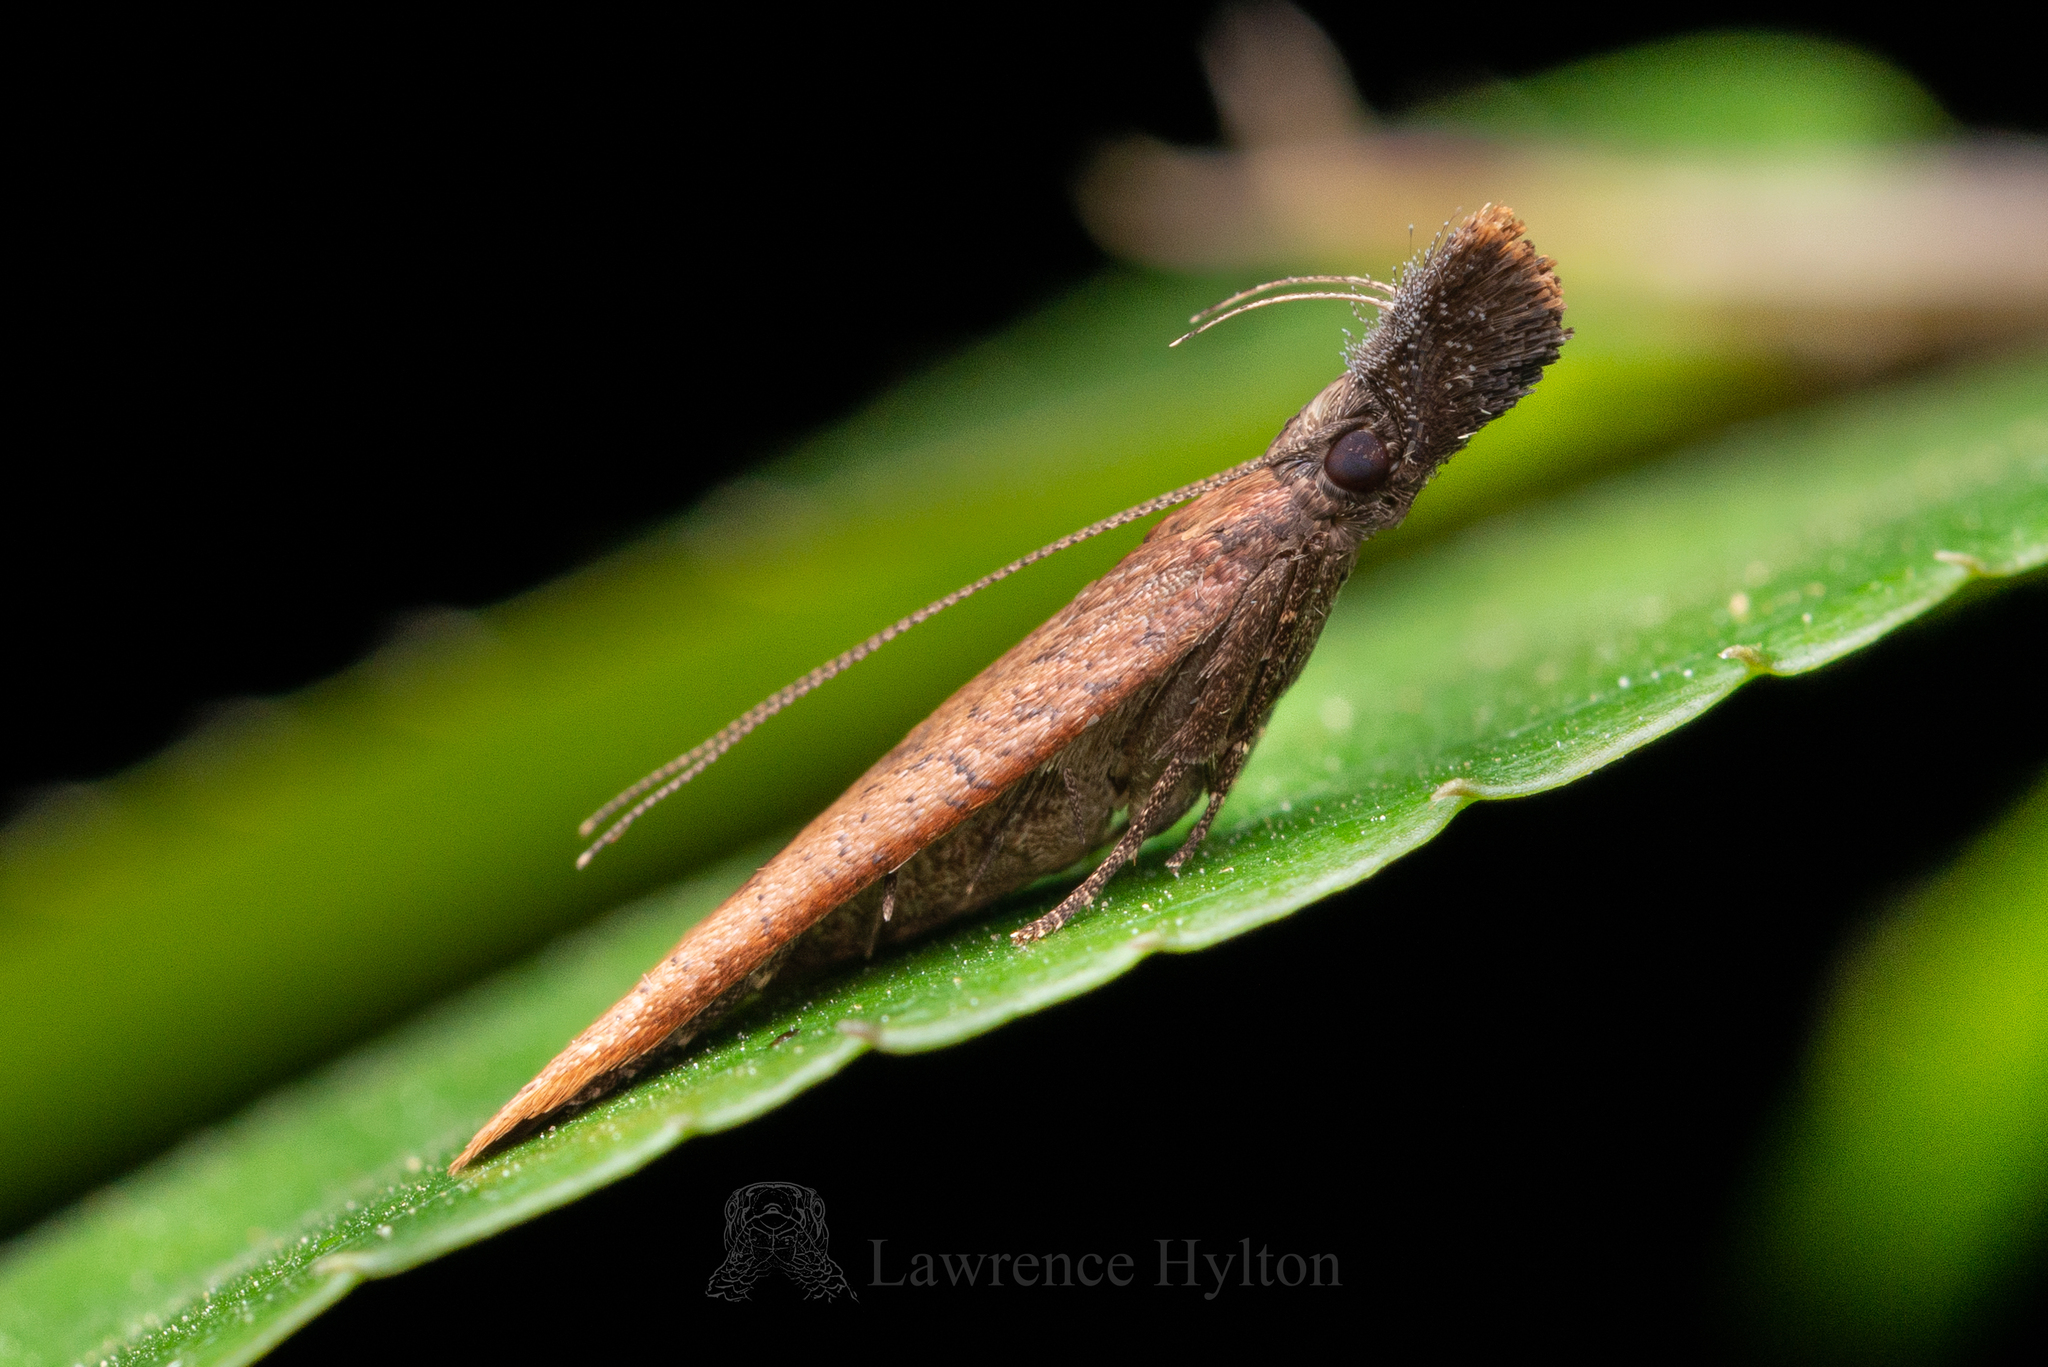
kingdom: Animalia
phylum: Arthropoda
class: Insecta
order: Lepidoptera
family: Gelechiidae
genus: Dichomeris
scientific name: Dichomeris zonata
